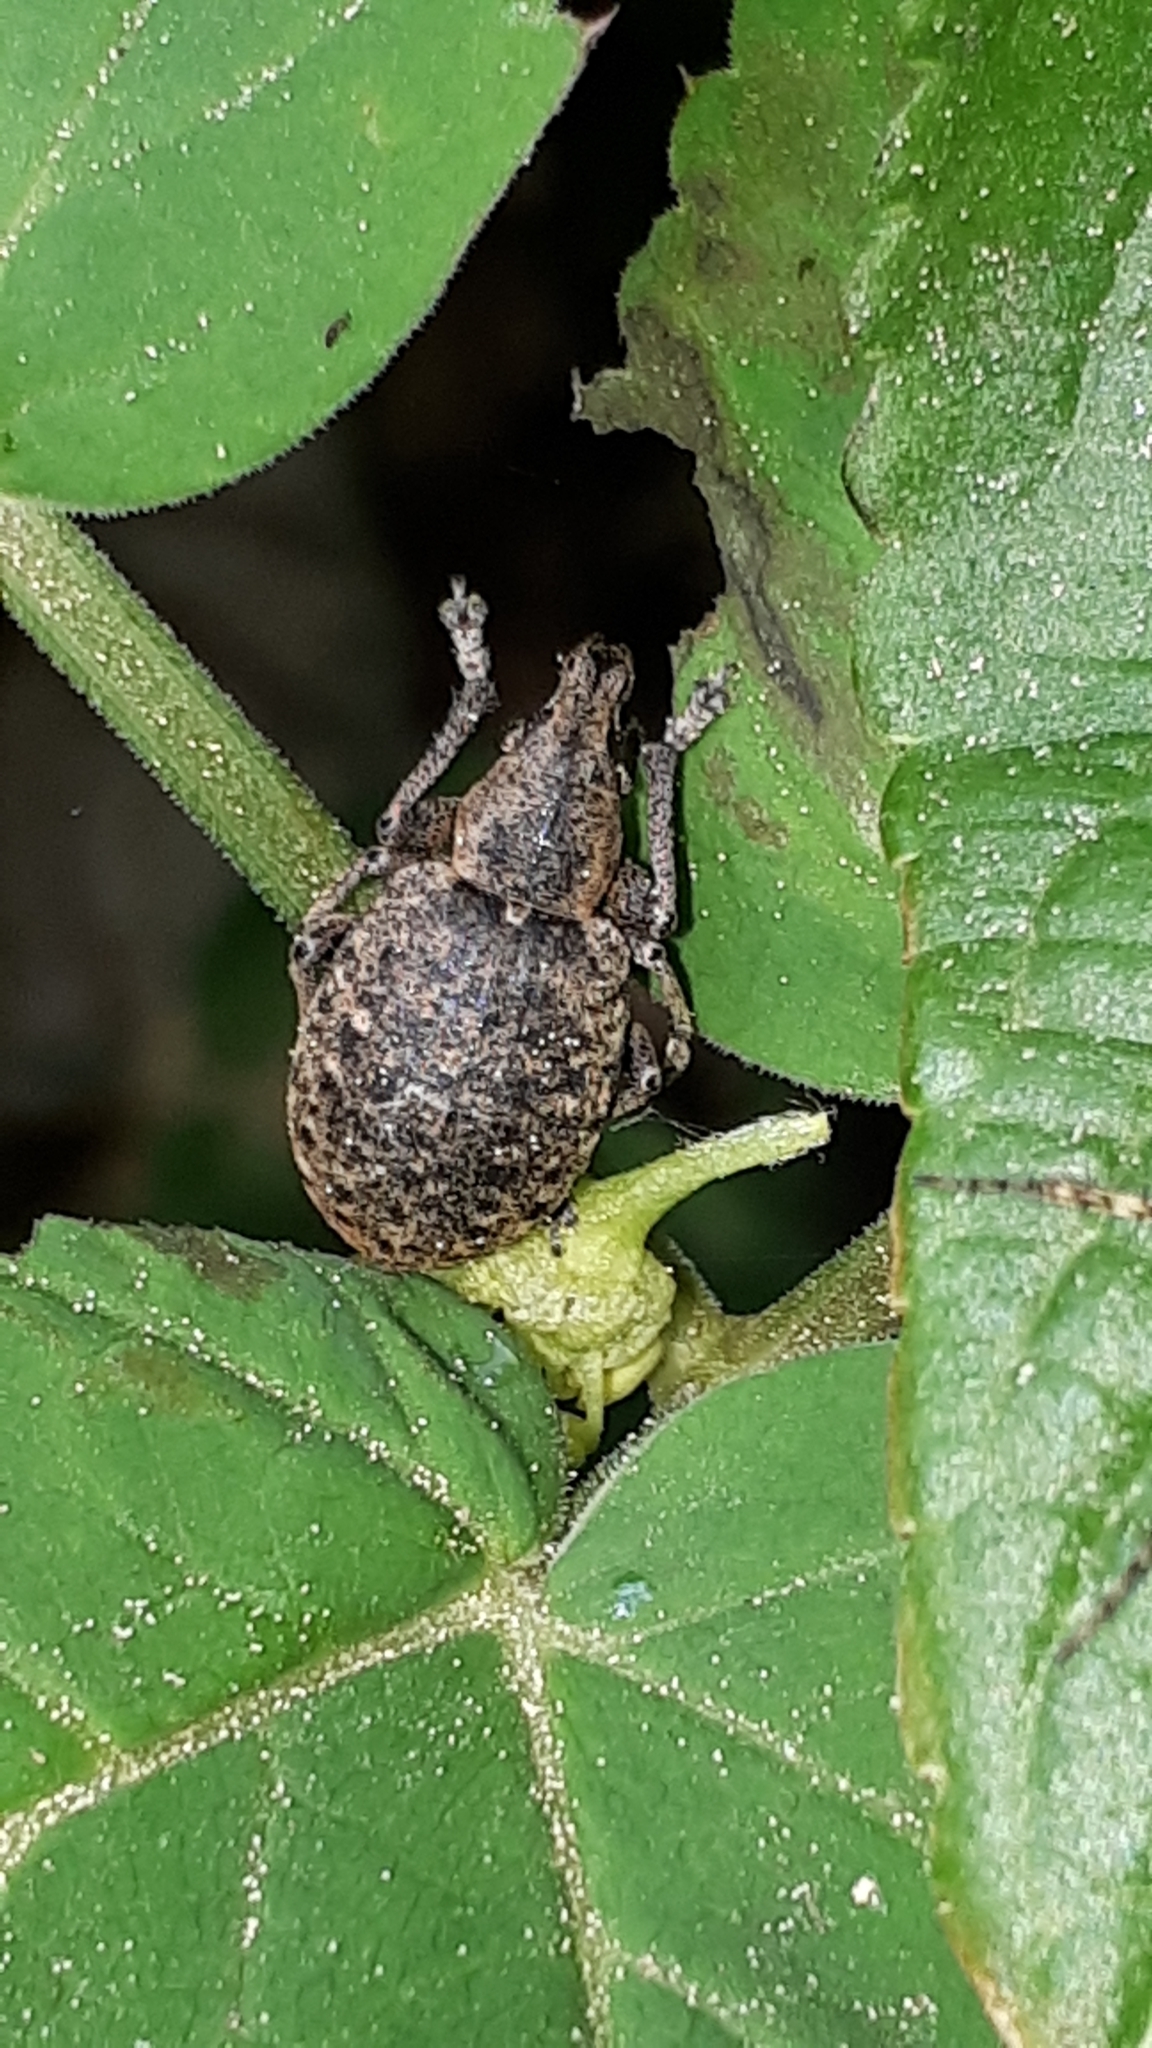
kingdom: Animalia
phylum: Arthropoda
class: Insecta
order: Coleoptera
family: Curculionidae
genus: Liophloeus
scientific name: Liophloeus tessulatus
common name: Weevil
